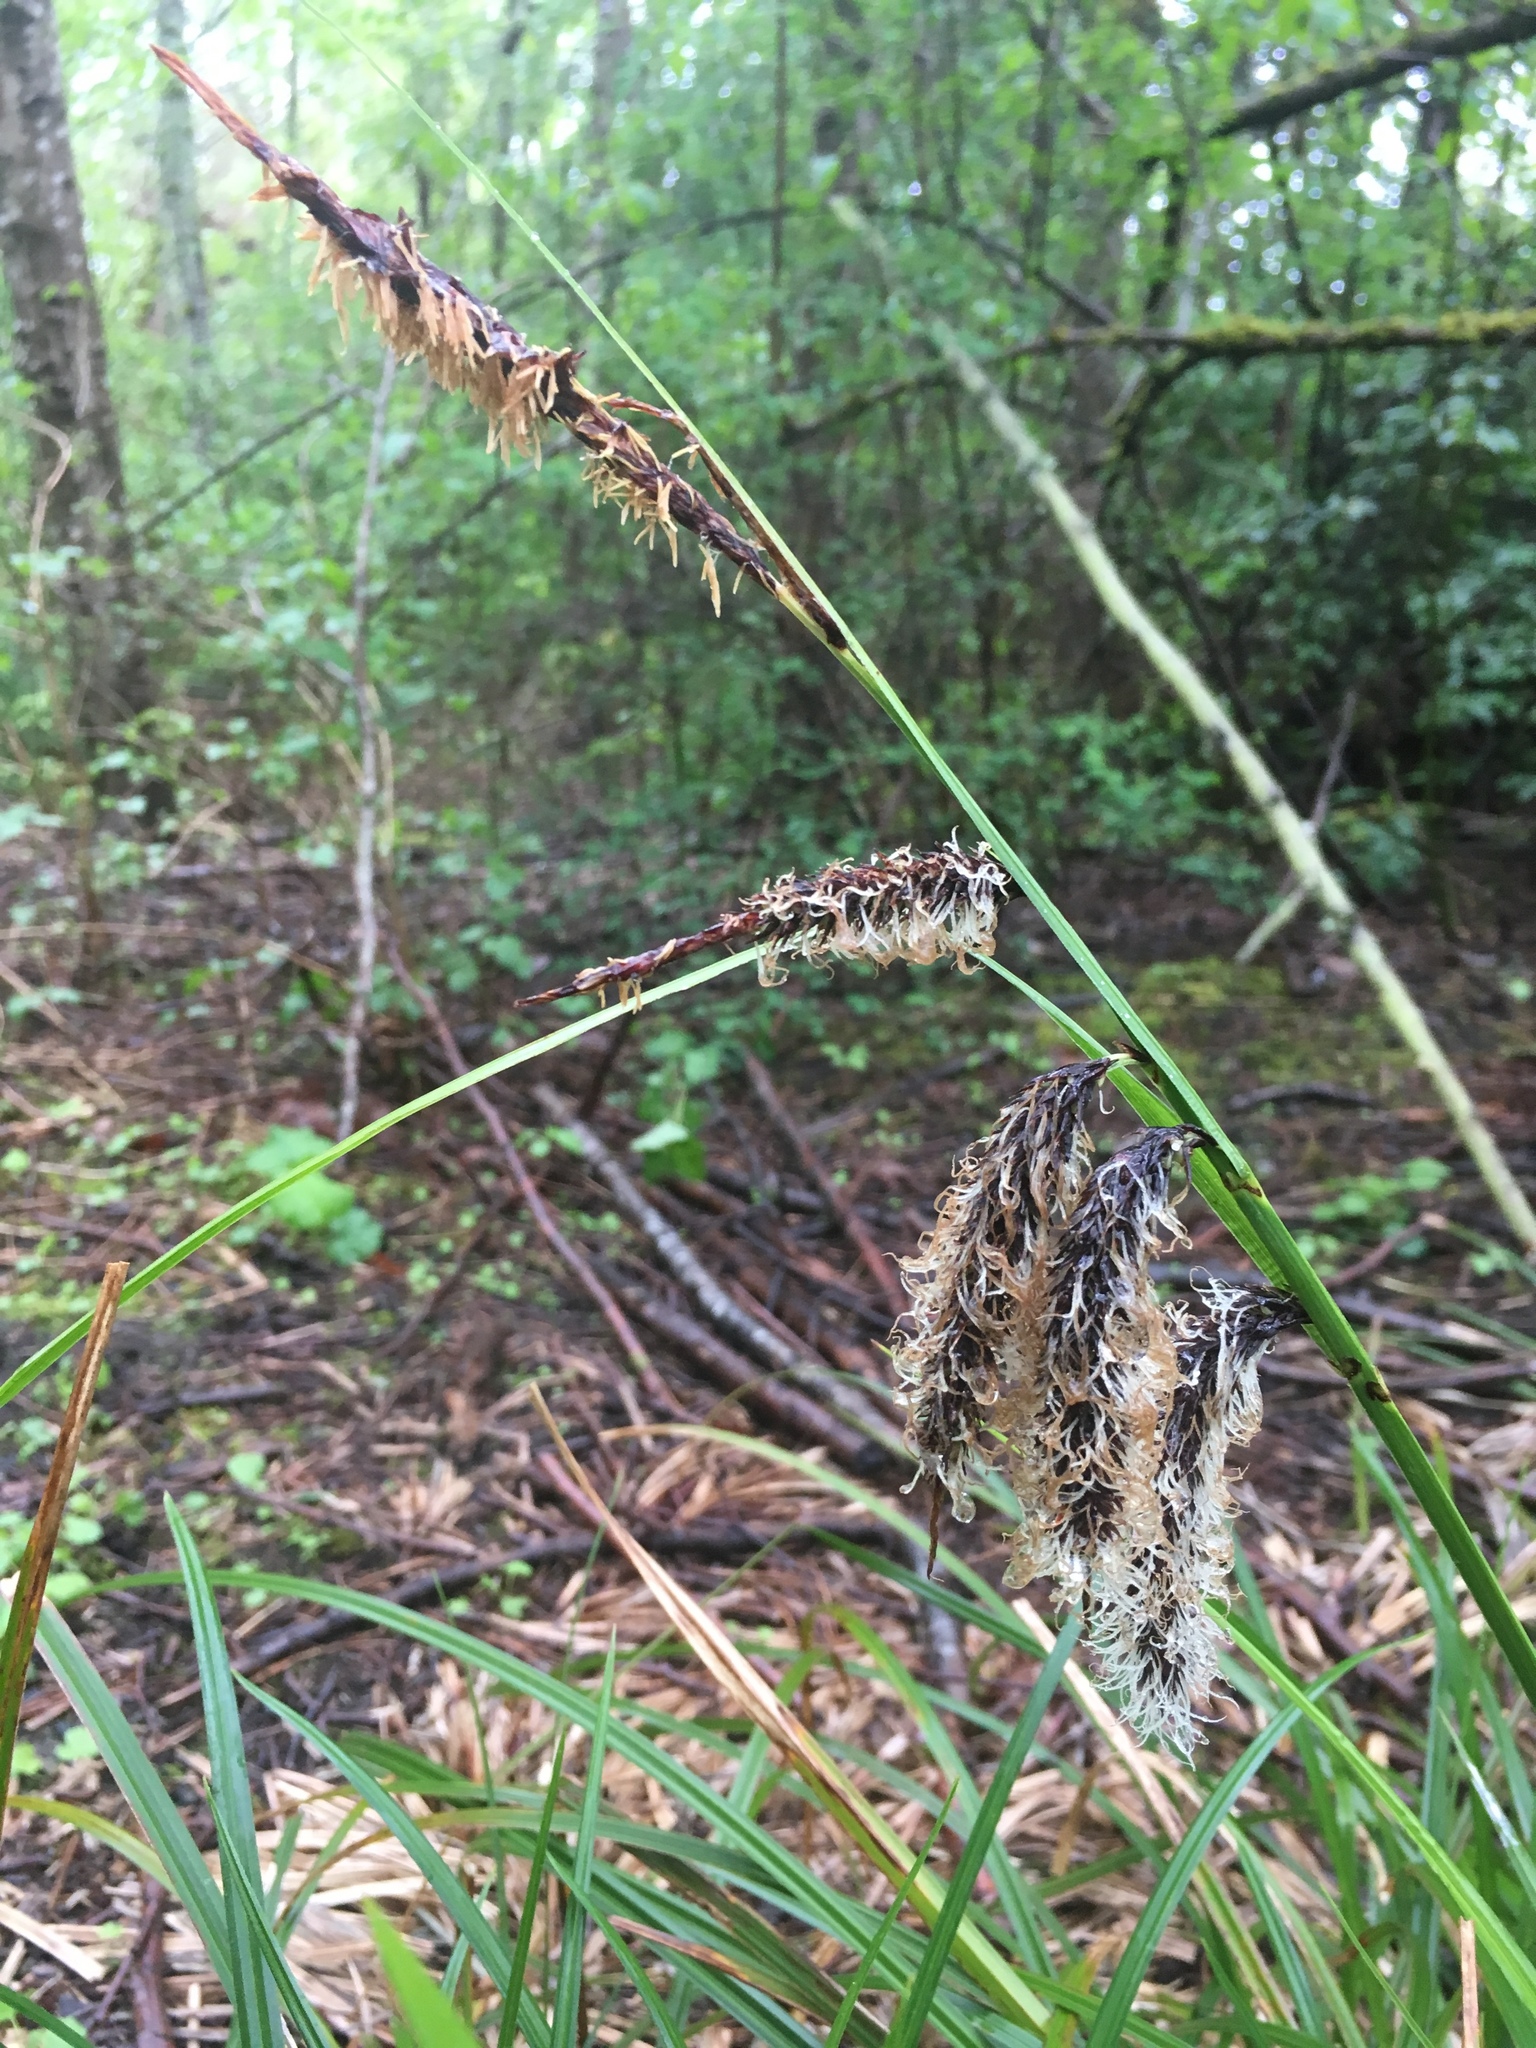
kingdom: Plantae
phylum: Tracheophyta
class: Liliopsida
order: Poales
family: Cyperaceae
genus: Carex
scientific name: Carex obnupta
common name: Slough sedge
